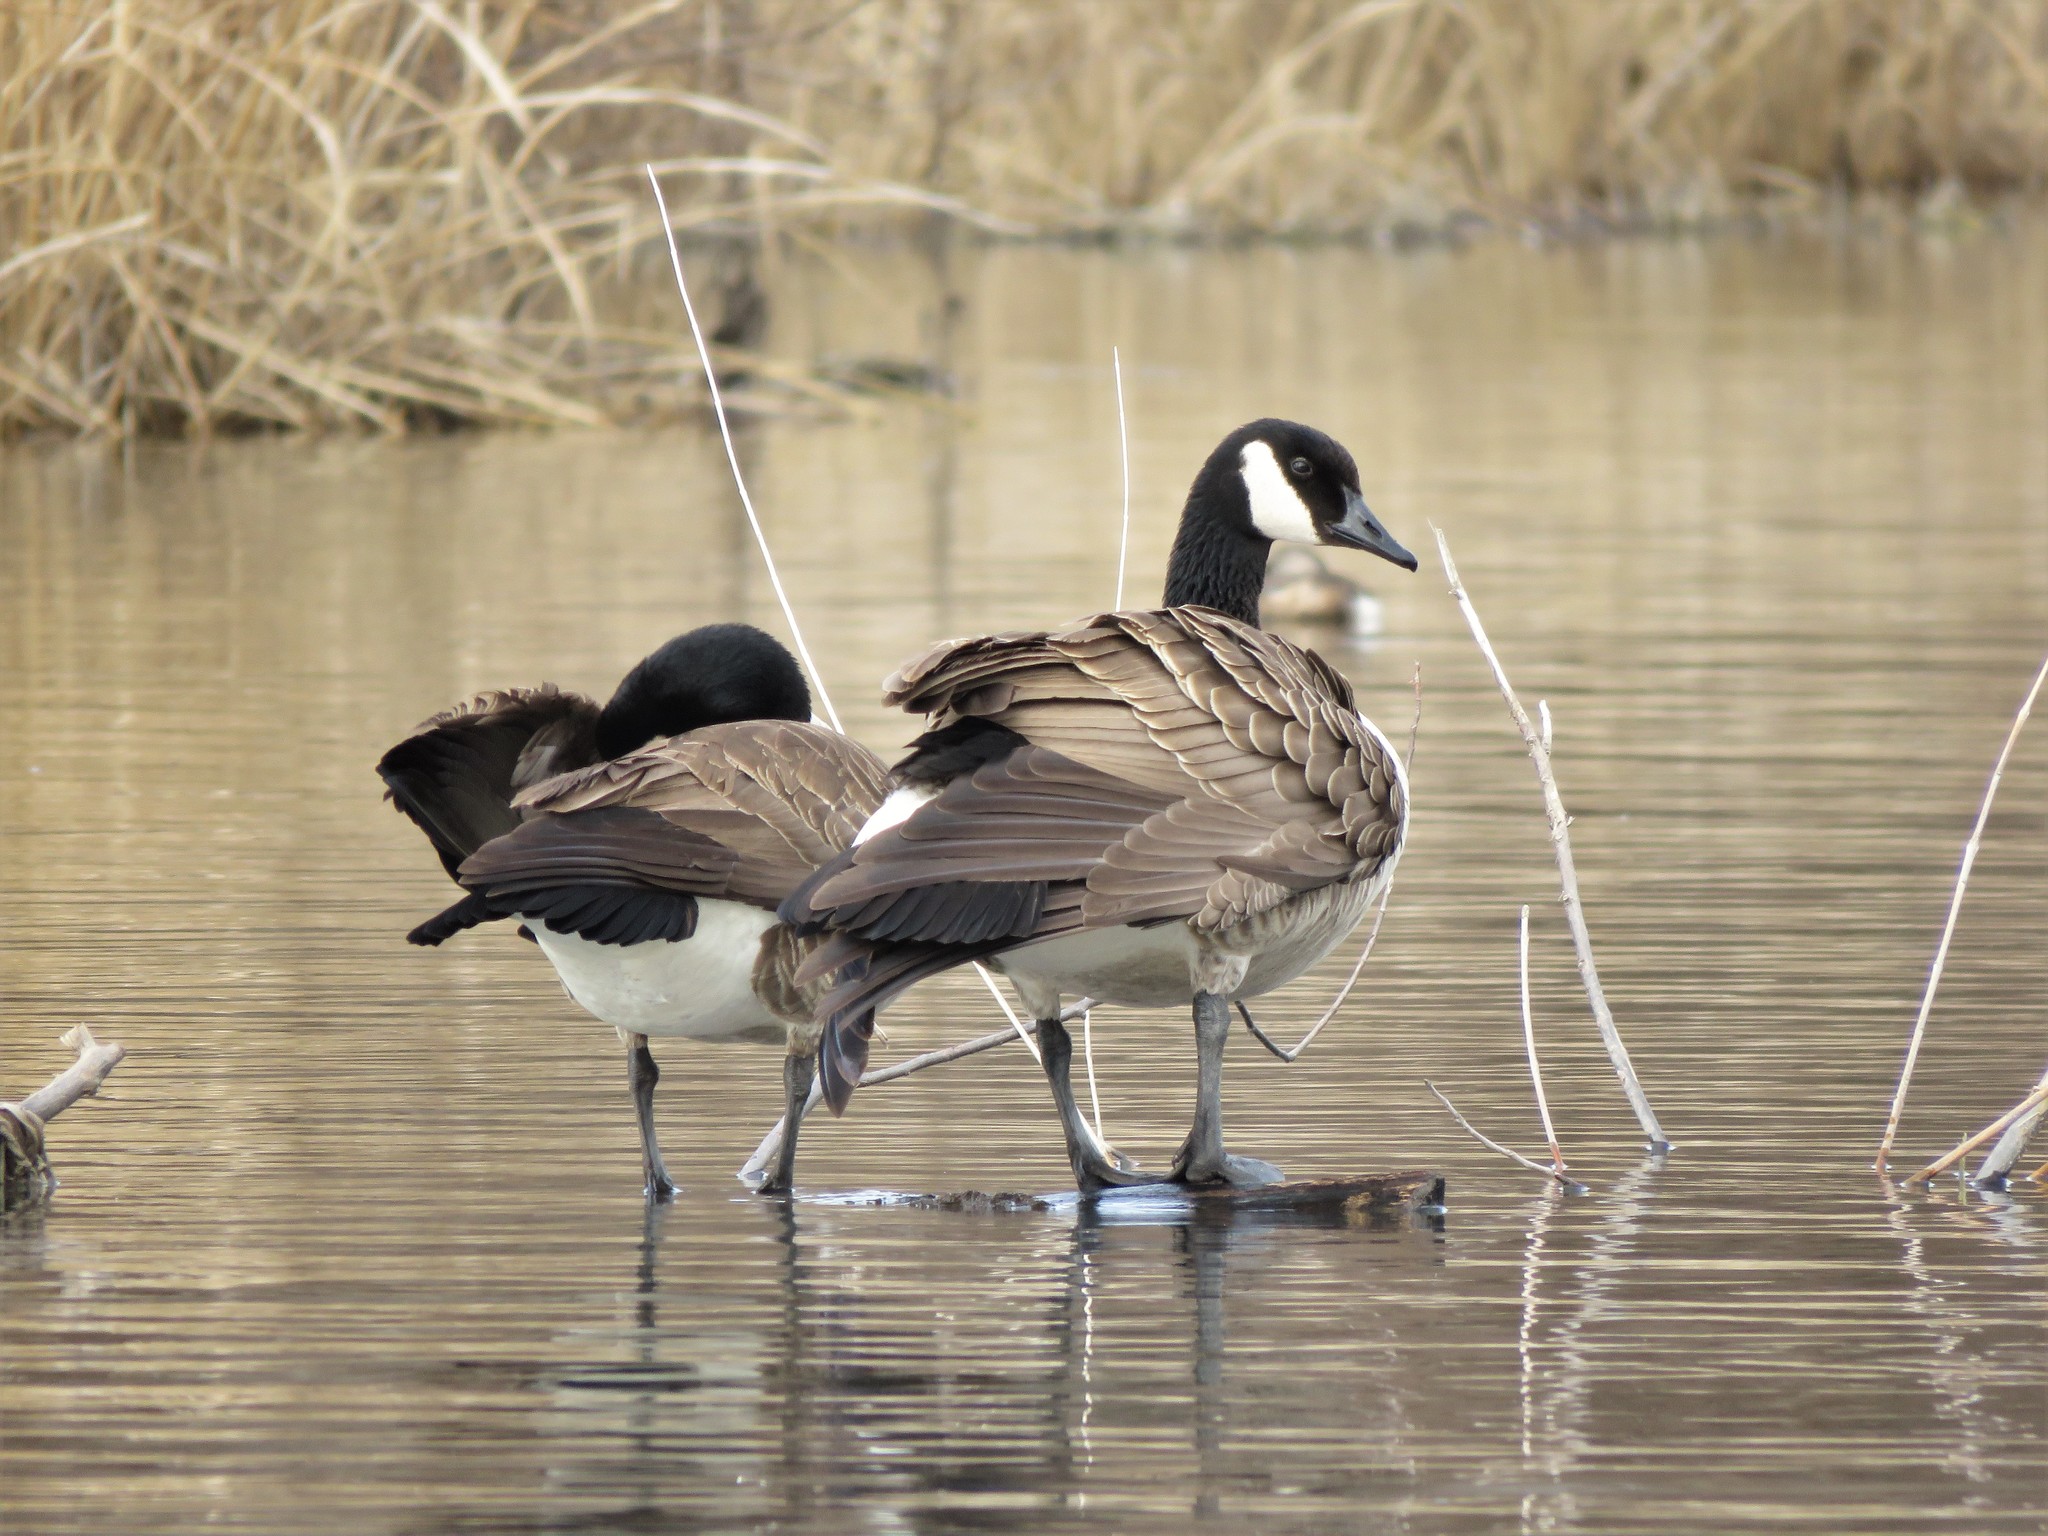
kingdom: Animalia
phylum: Chordata
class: Aves
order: Anseriformes
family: Anatidae
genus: Branta
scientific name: Branta canadensis
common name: Canada goose
